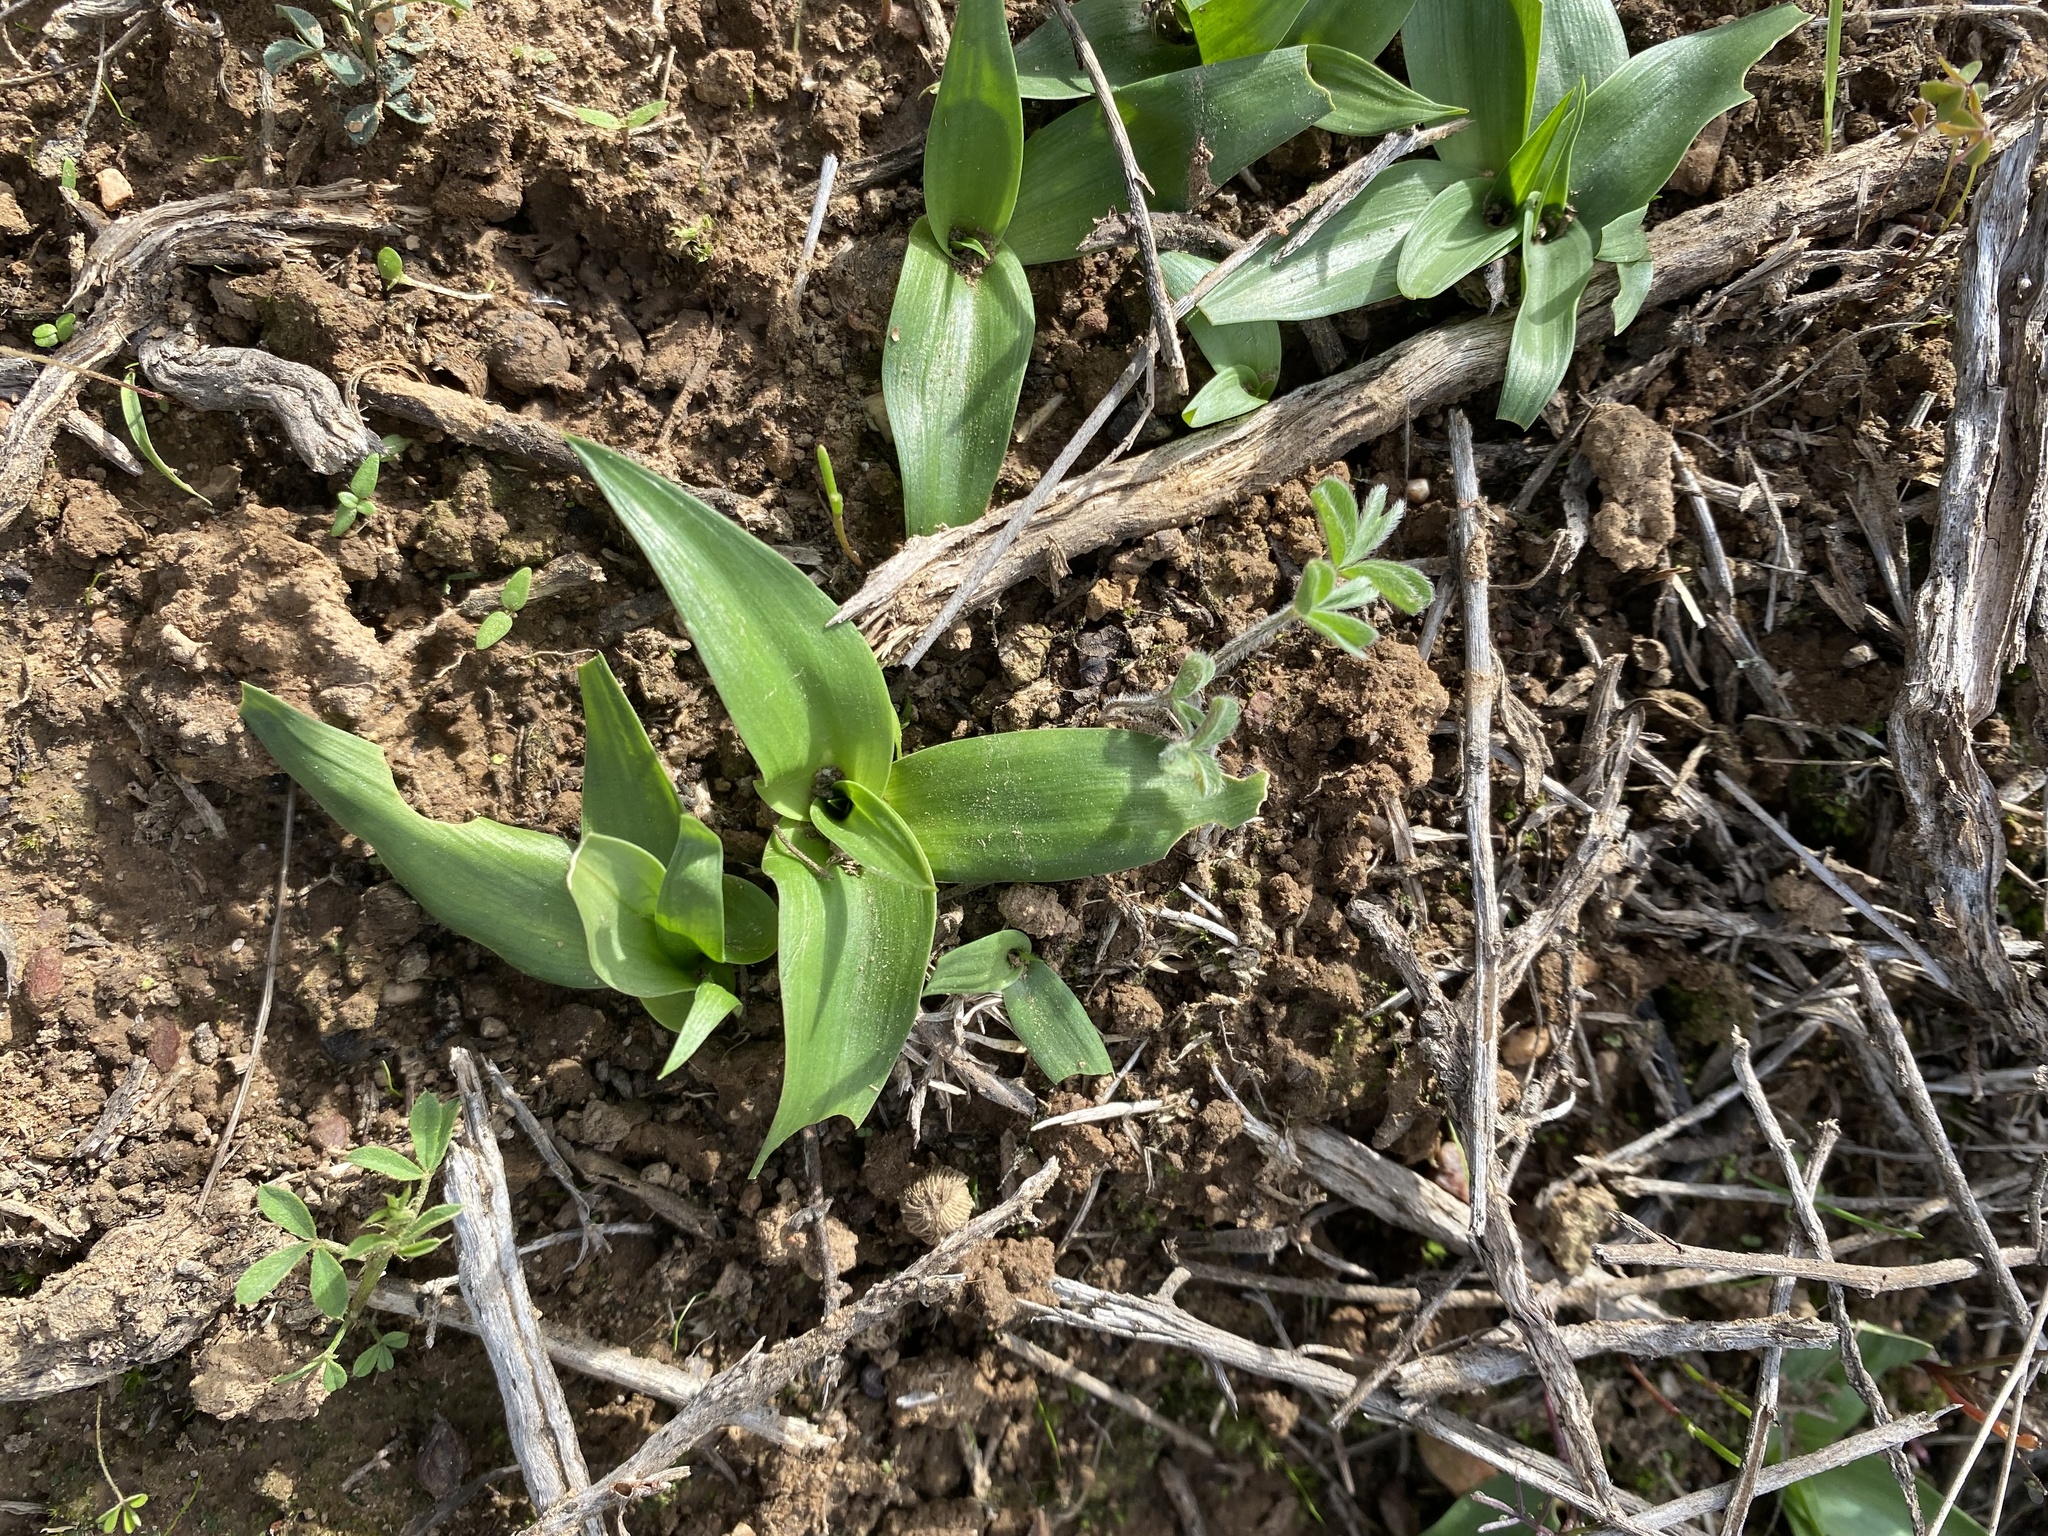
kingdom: Plantae
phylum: Tracheophyta
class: Liliopsida
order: Commelinales
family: Commelinaceae
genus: Cyanotis
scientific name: Cyanotis speciosa
